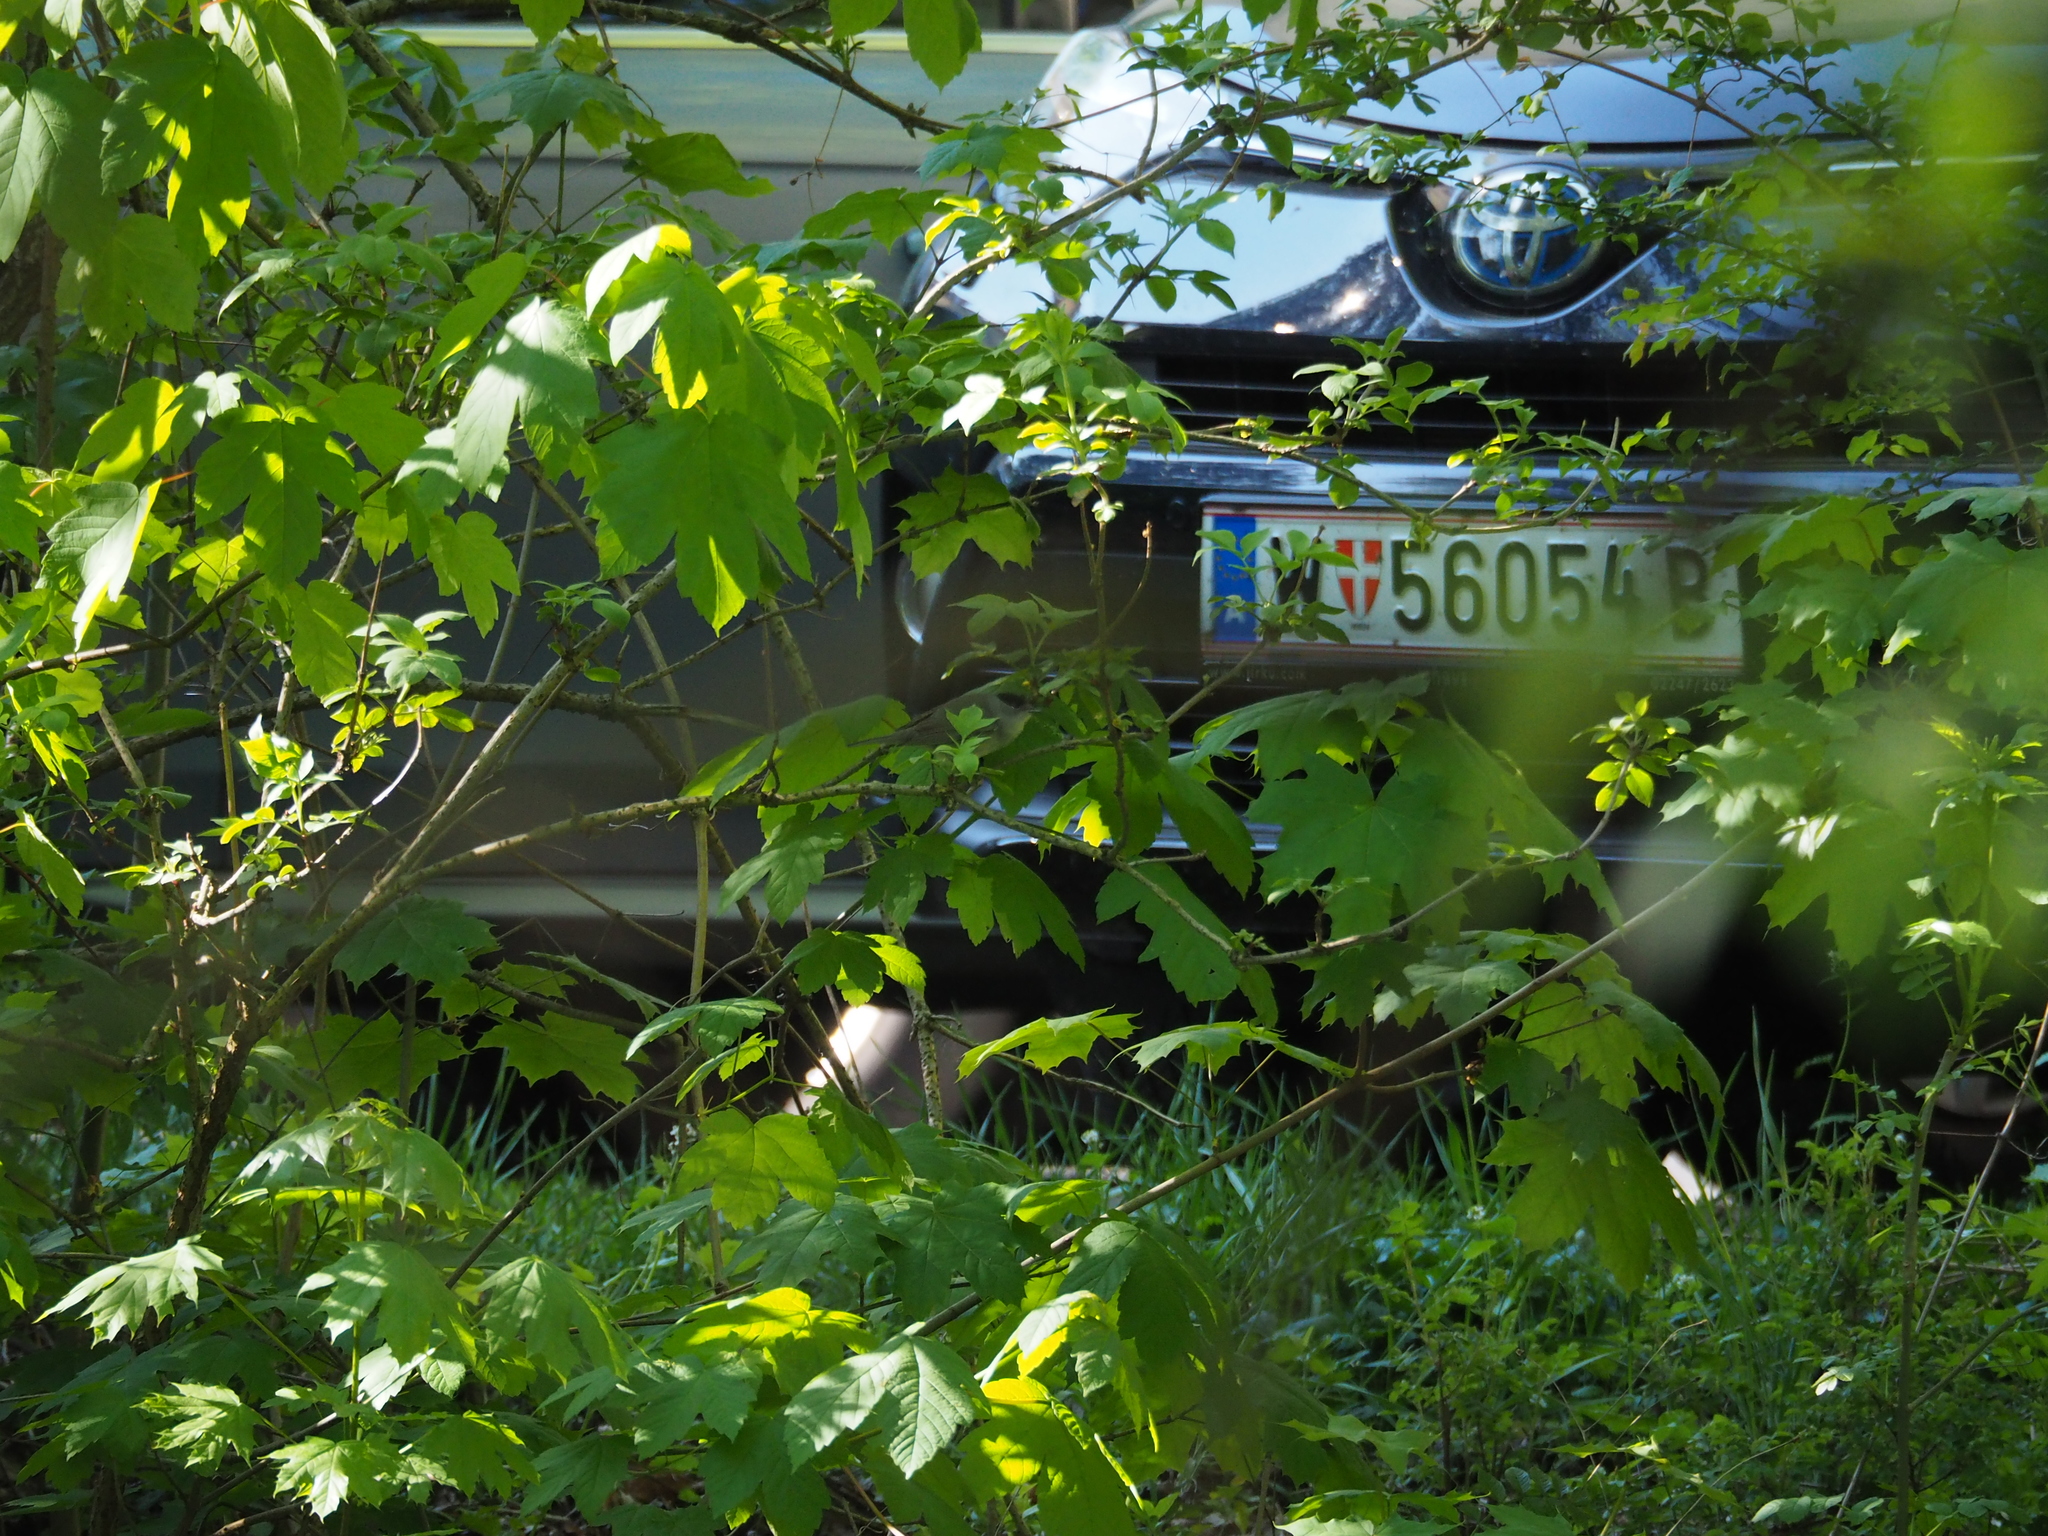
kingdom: Animalia
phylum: Chordata
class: Aves
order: Passeriformes
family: Sylviidae
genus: Sylvia
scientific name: Sylvia atricapilla
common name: Eurasian blackcap
